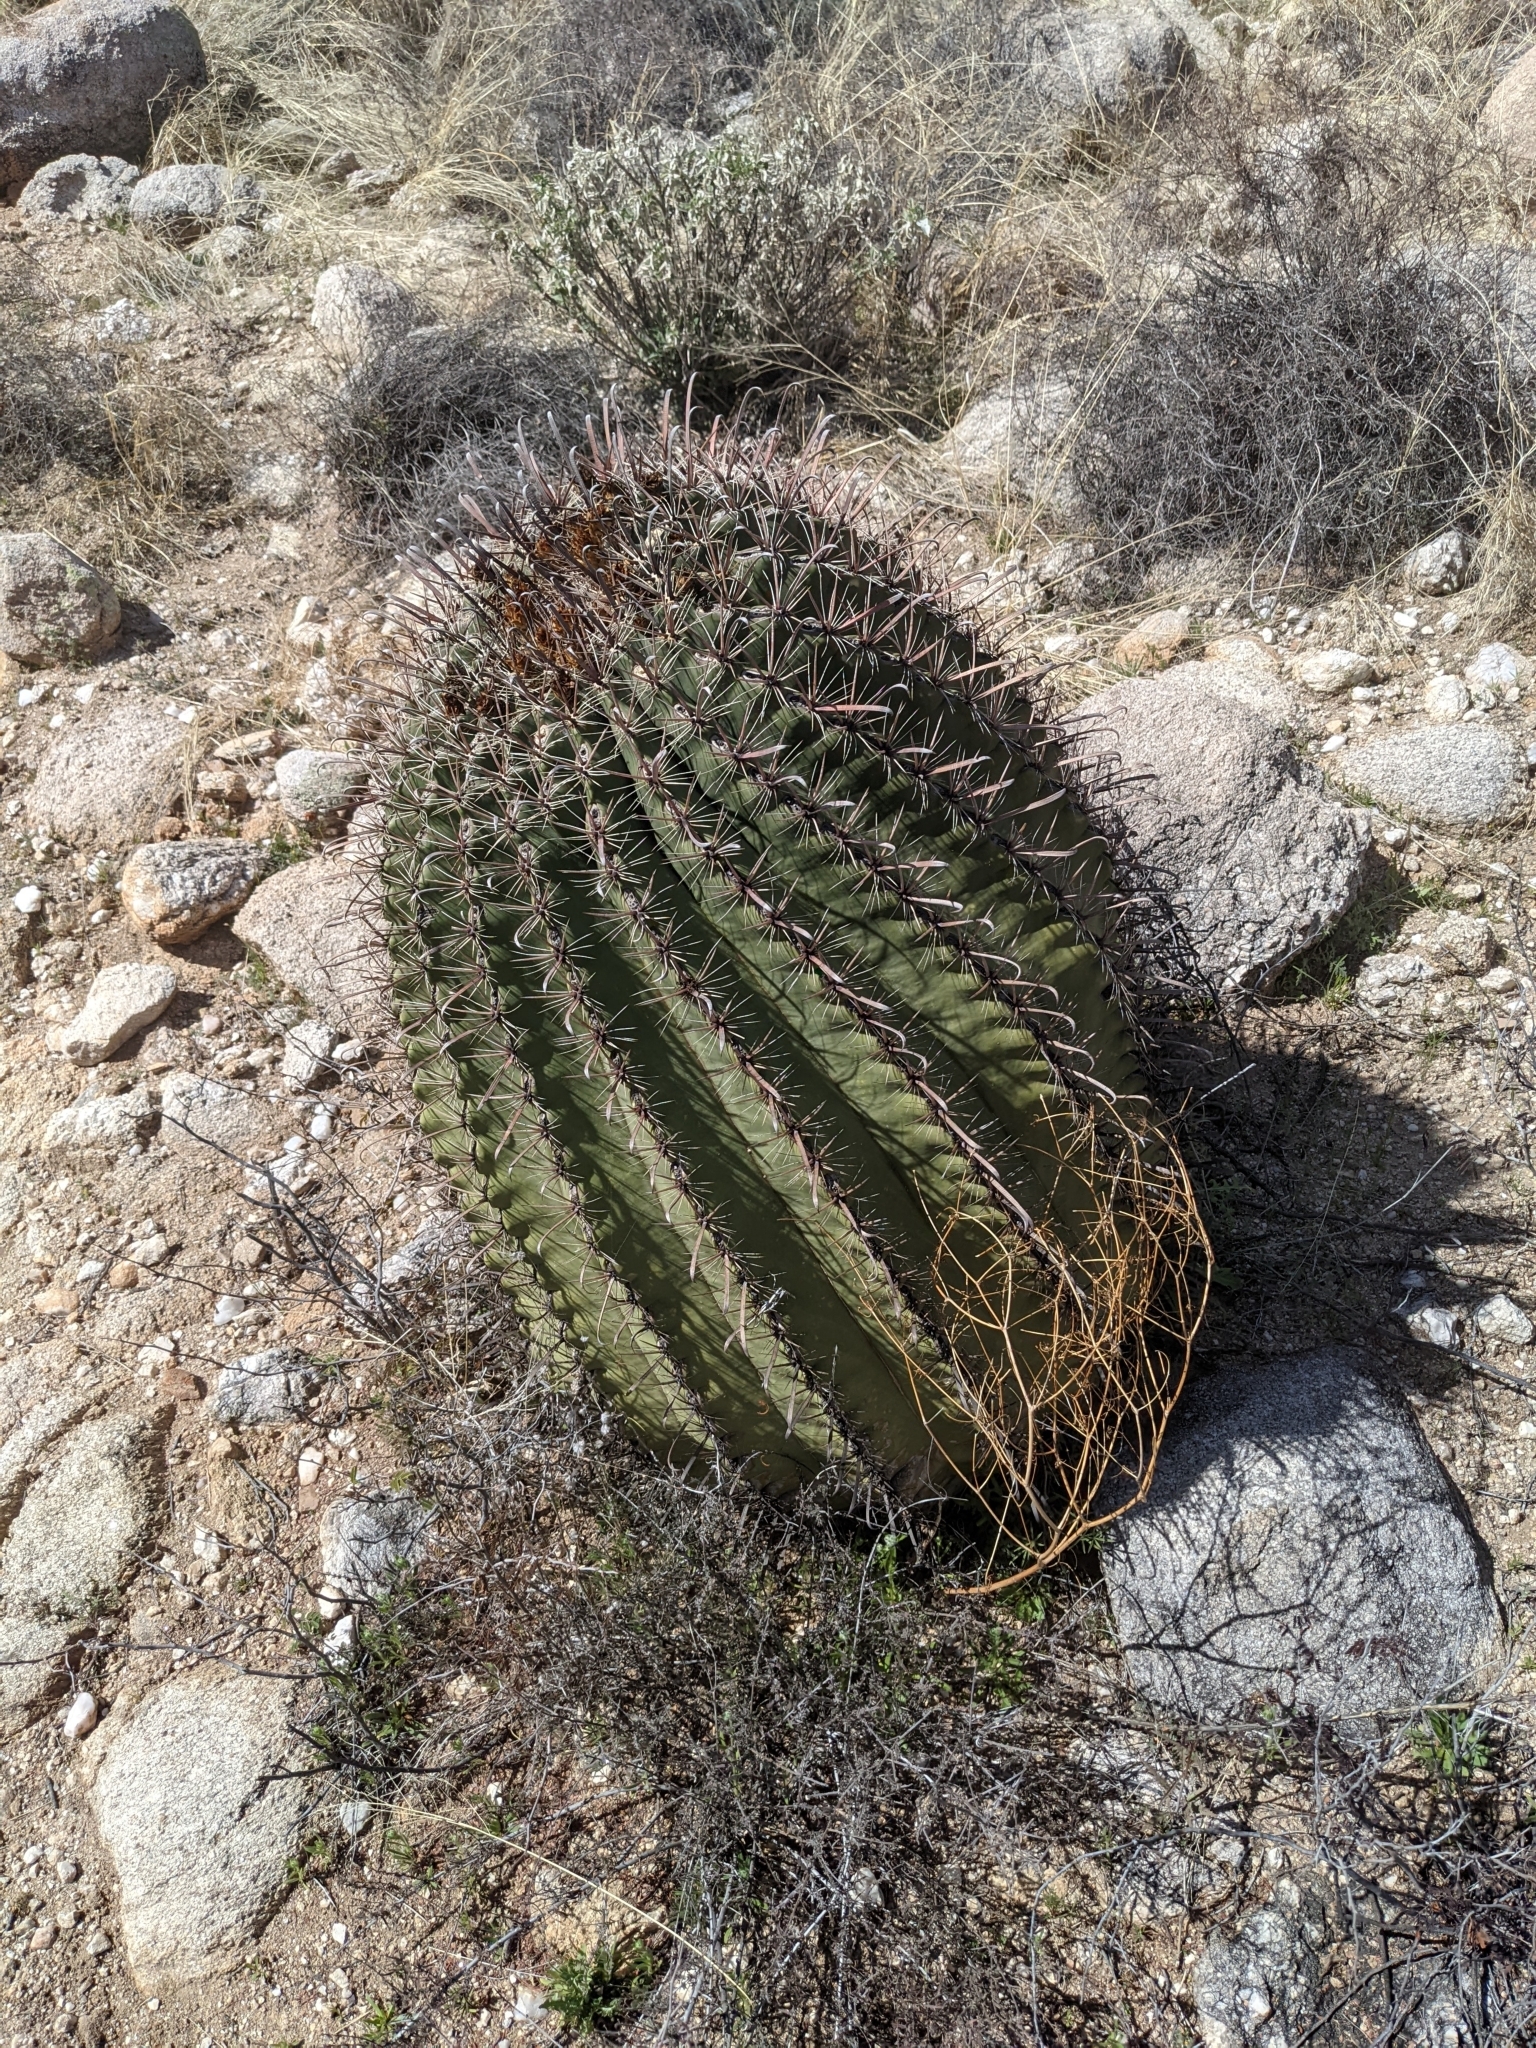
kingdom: Plantae
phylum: Tracheophyta
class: Magnoliopsida
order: Caryophyllales
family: Cactaceae
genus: Ferocactus
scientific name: Ferocactus wislizeni
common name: Candy barrel cactus
